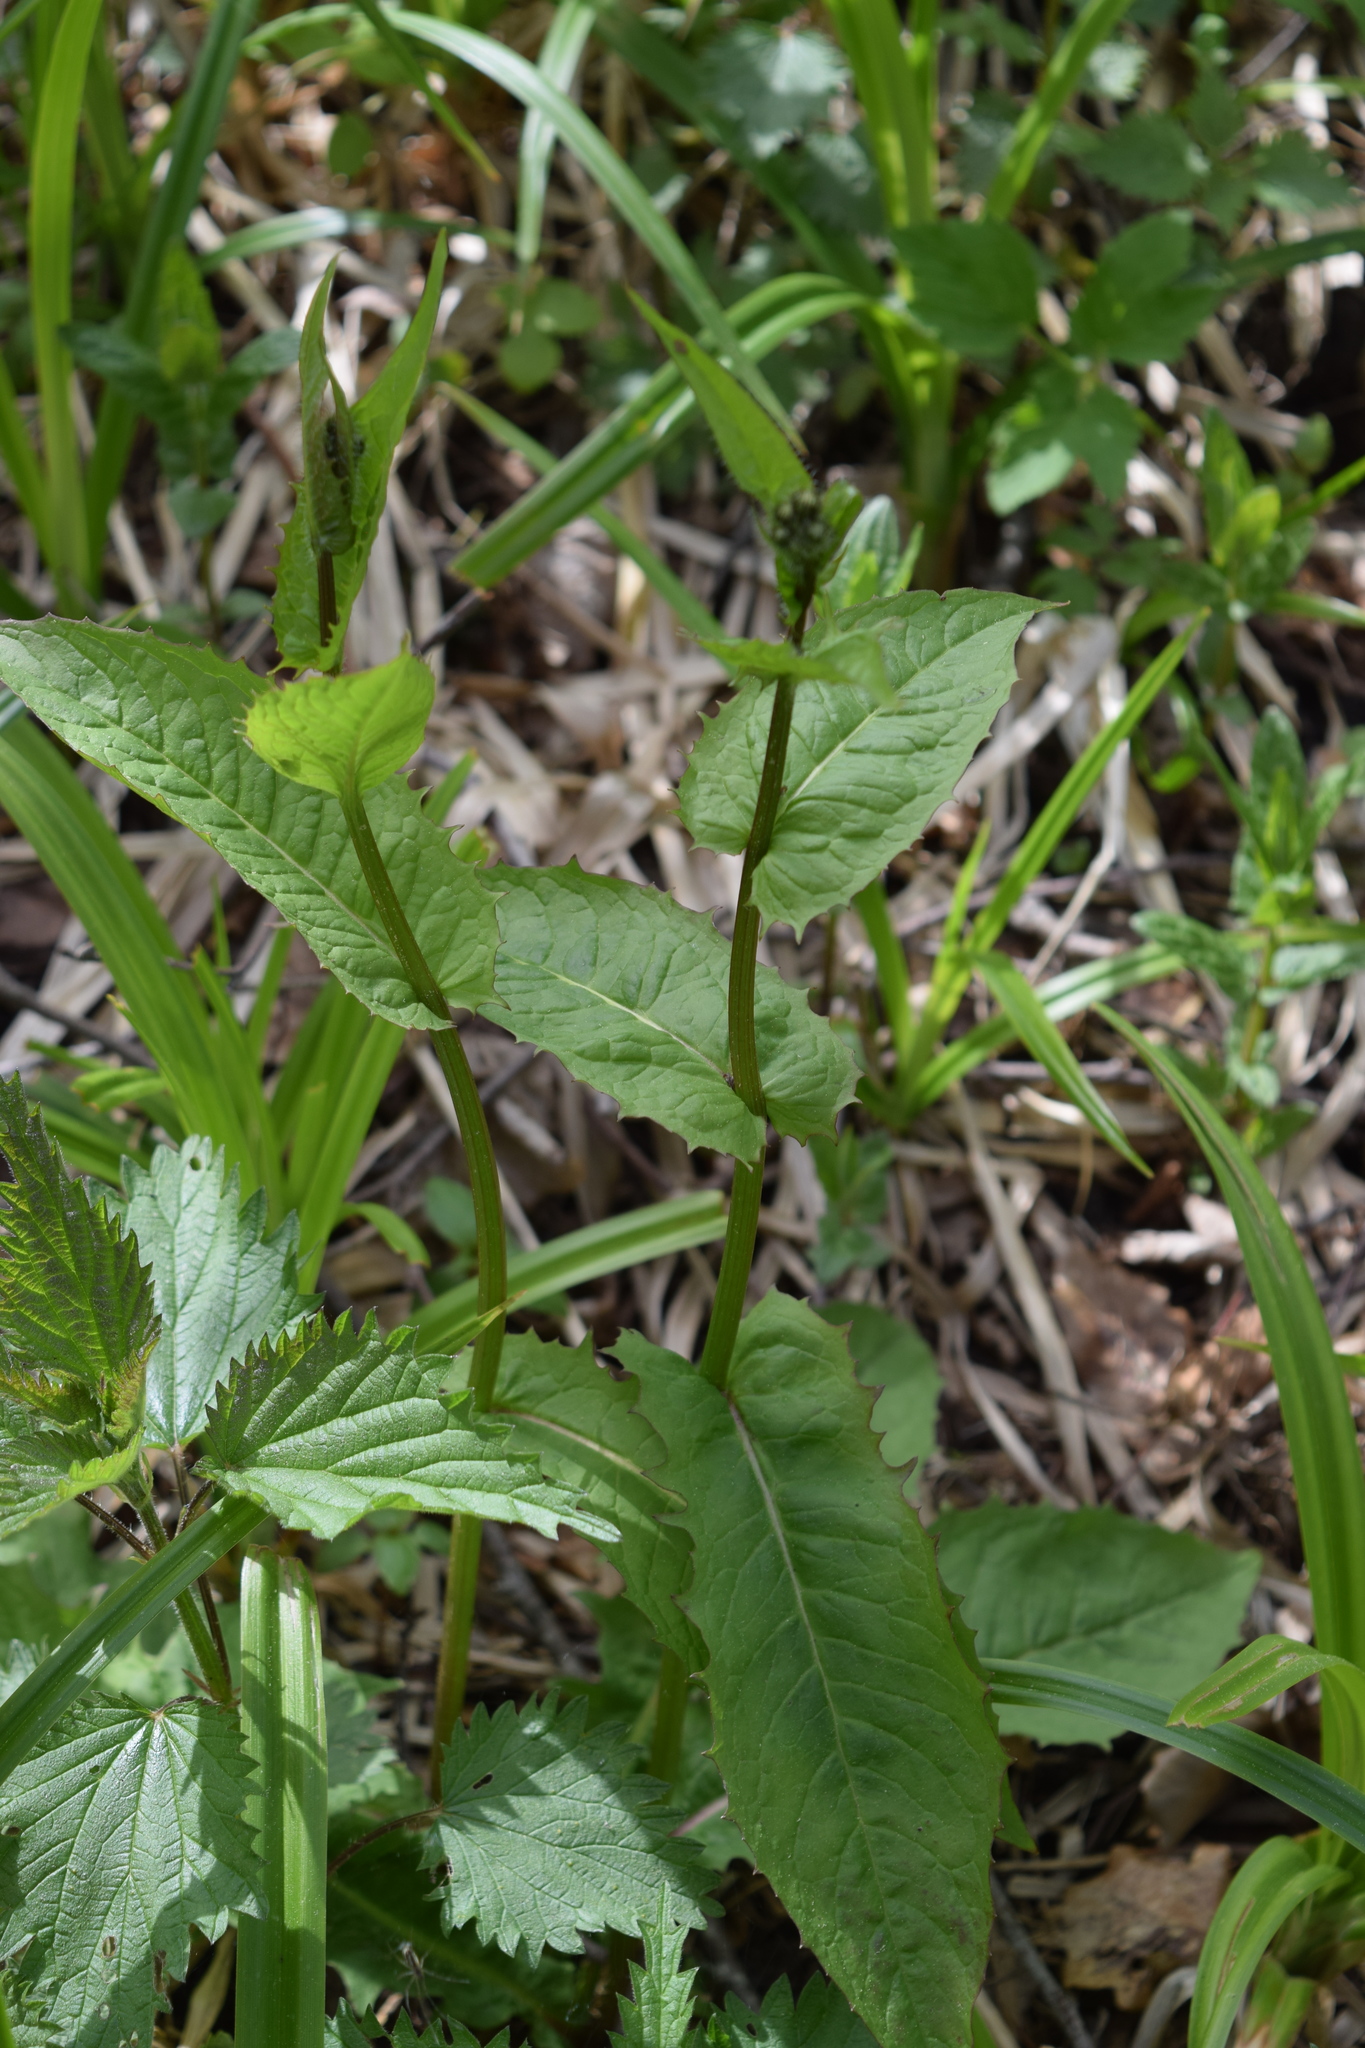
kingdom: Plantae
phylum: Tracheophyta
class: Magnoliopsida
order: Asterales
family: Asteraceae
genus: Crepis
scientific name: Crepis paludosa
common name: Marsh hawk's-beard
